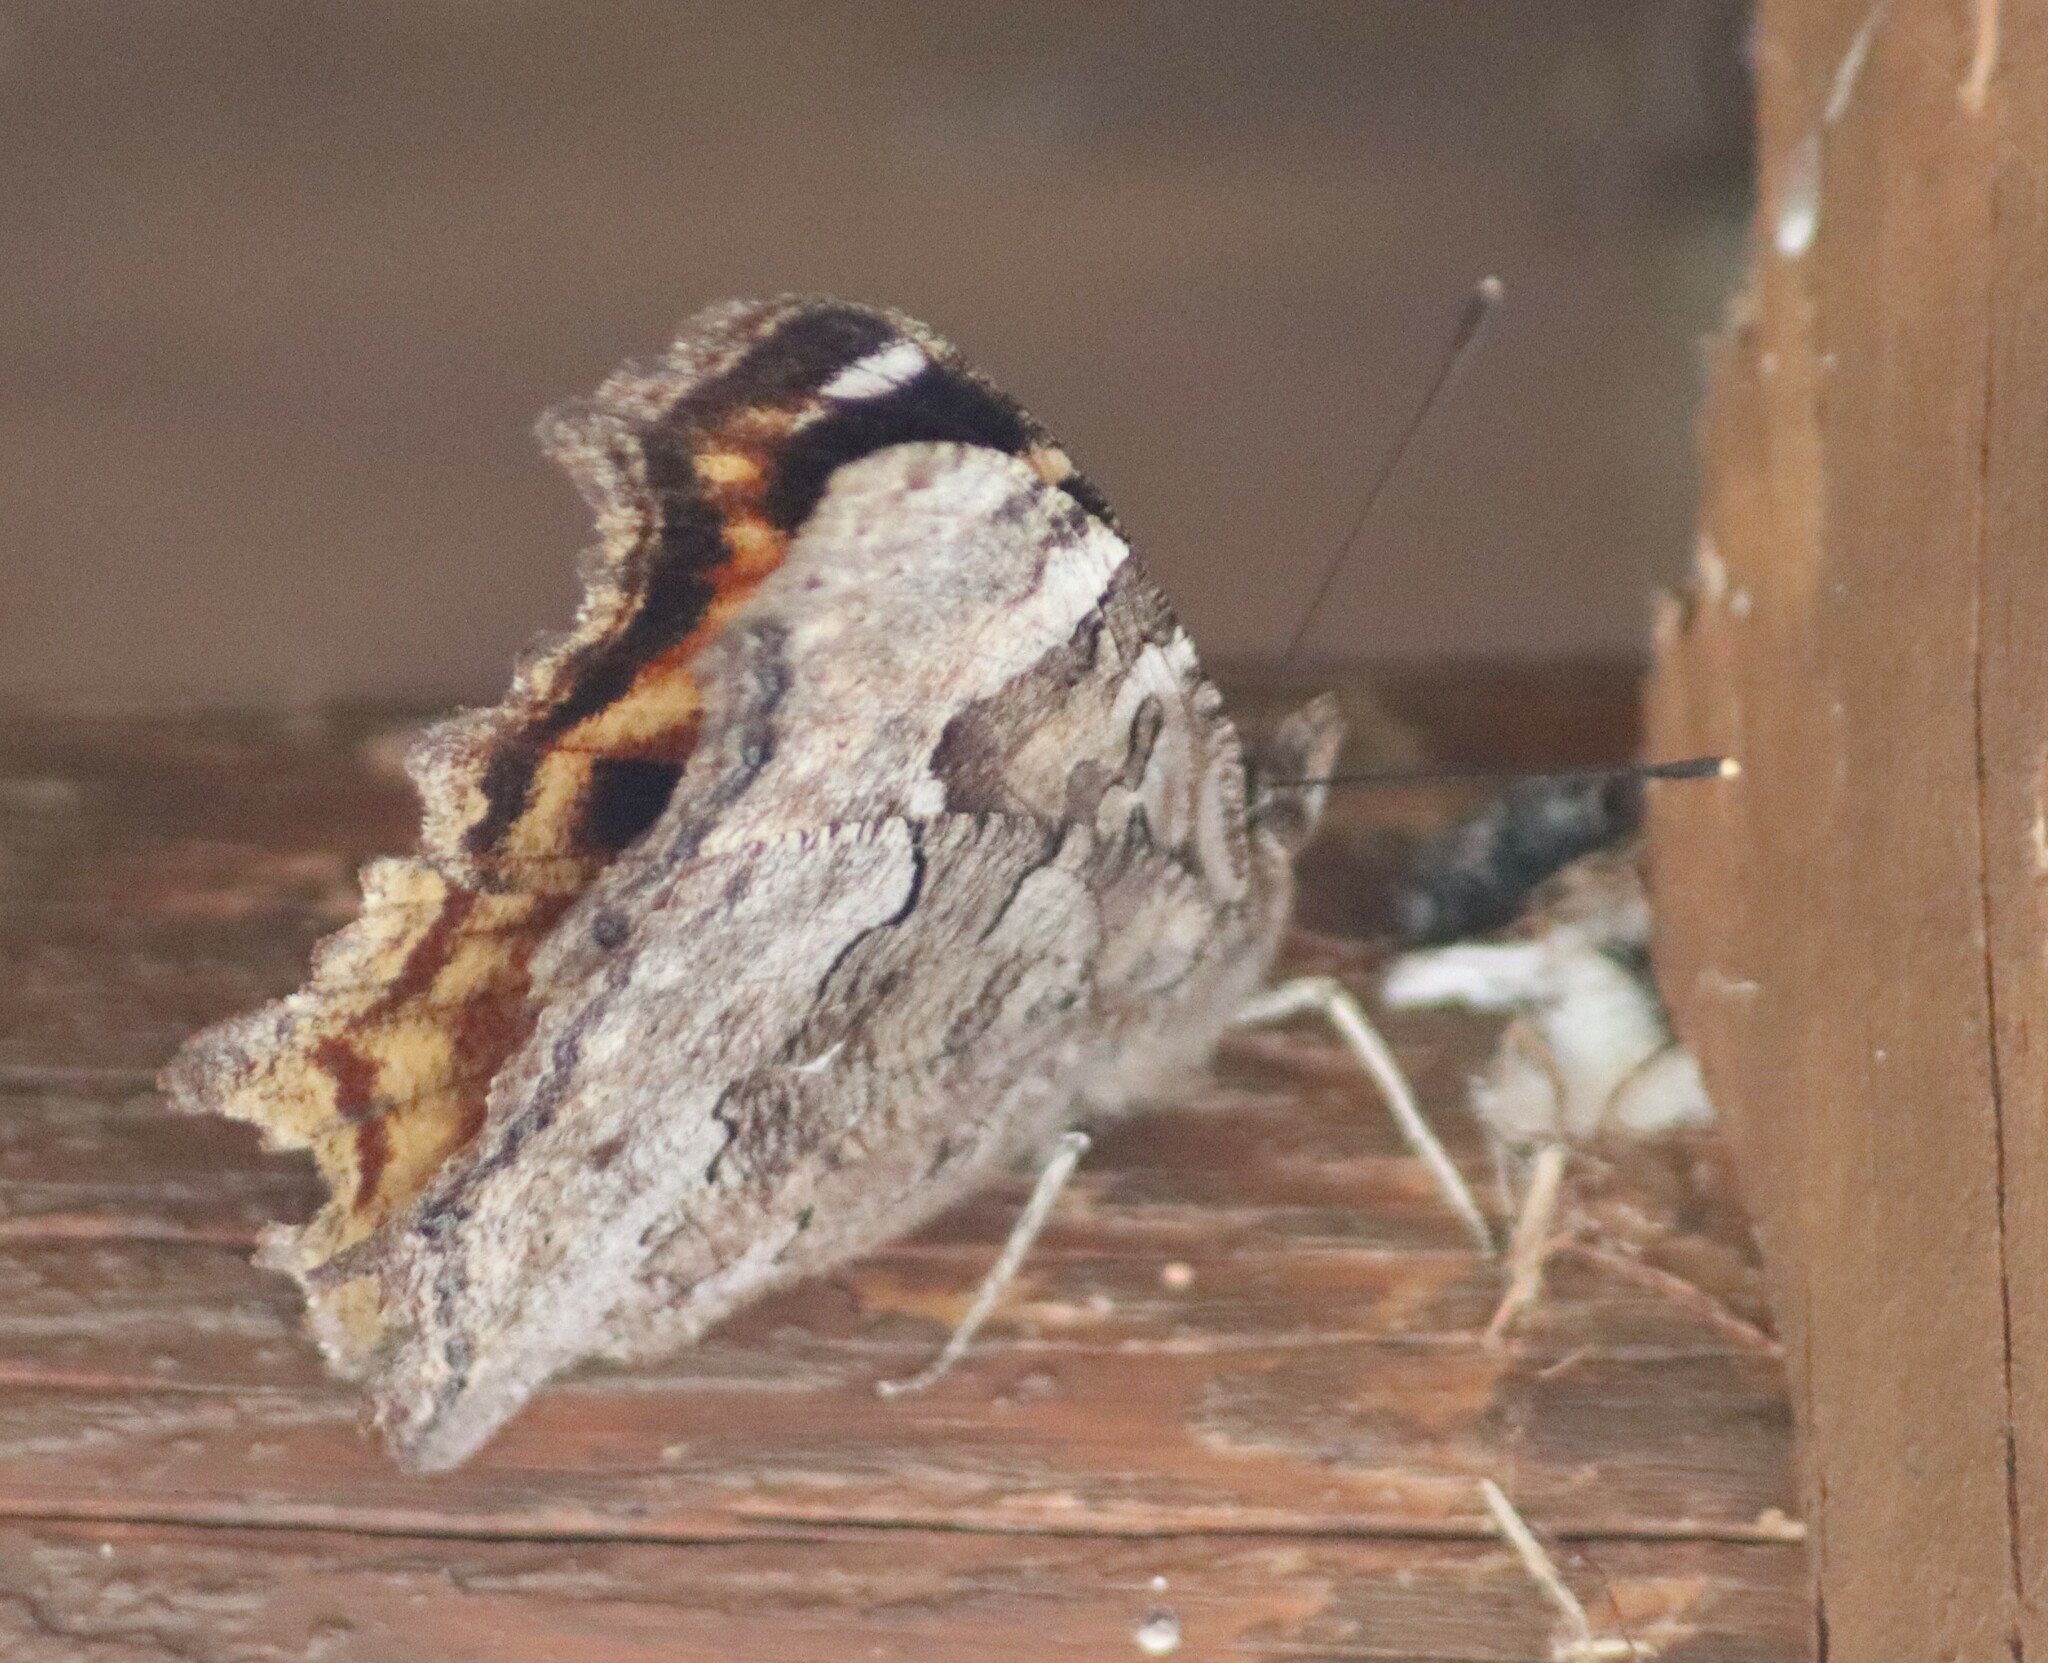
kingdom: Animalia
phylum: Arthropoda
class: Insecta
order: Lepidoptera
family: Nymphalidae
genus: Polygonia
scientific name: Polygonia vaualbum
